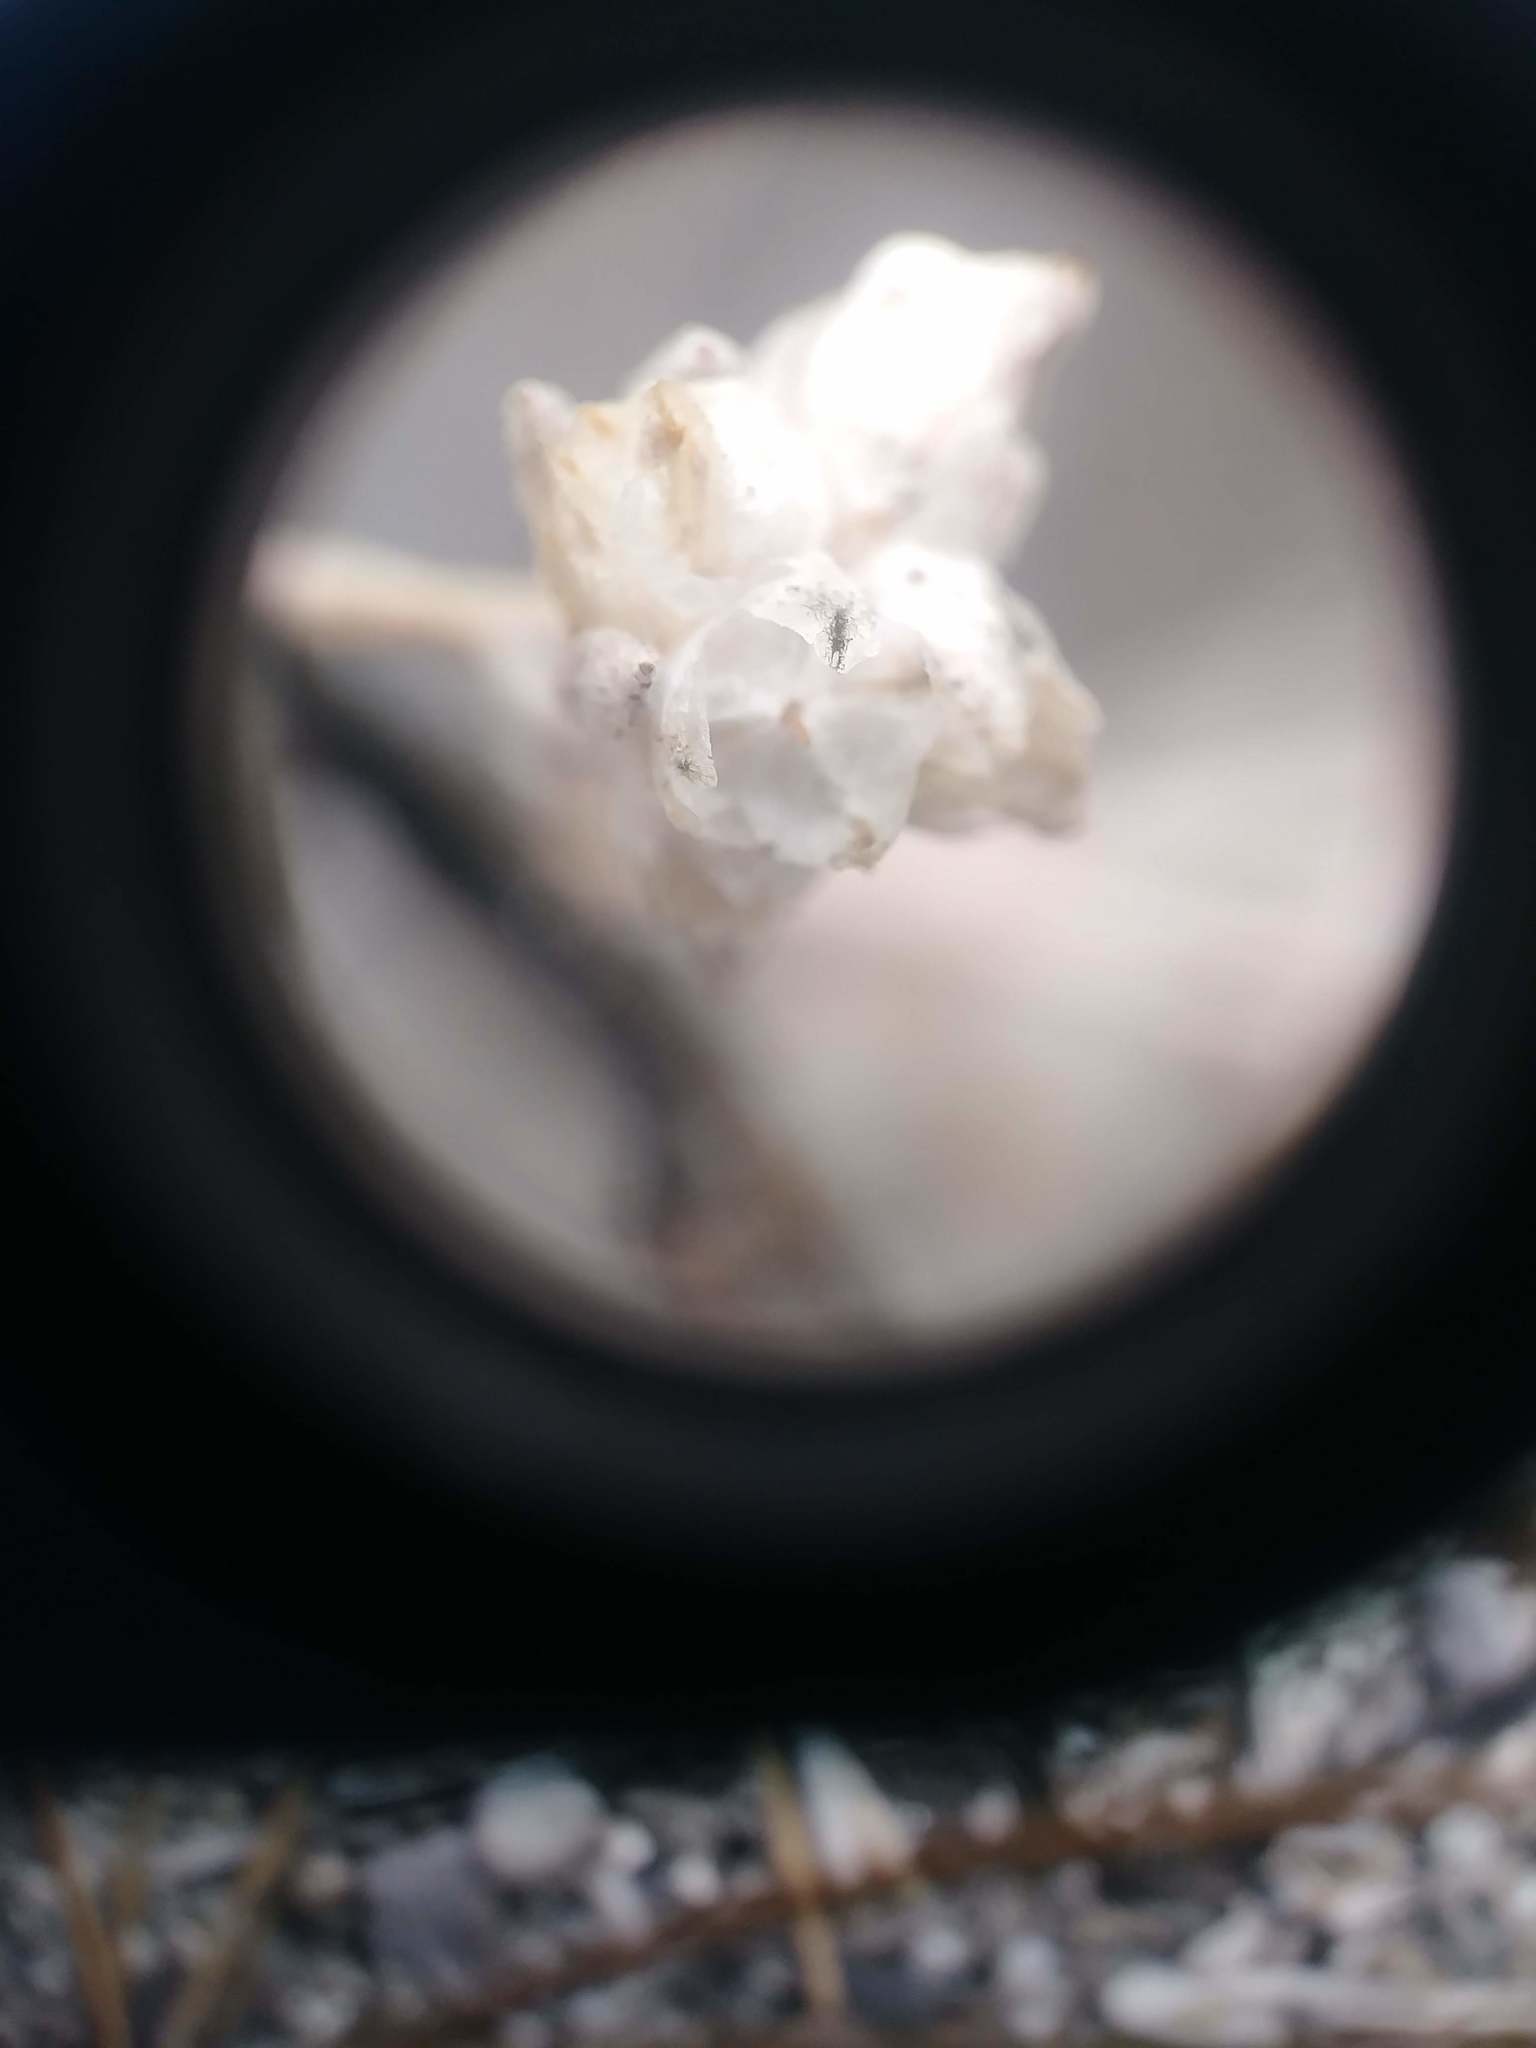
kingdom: Plantae
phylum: Tracheophyta
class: Magnoliopsida
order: Asterales
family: Asteraceae
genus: Stylocline
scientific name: Stylocline gnaphaloides
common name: Everlasting nest-straw
